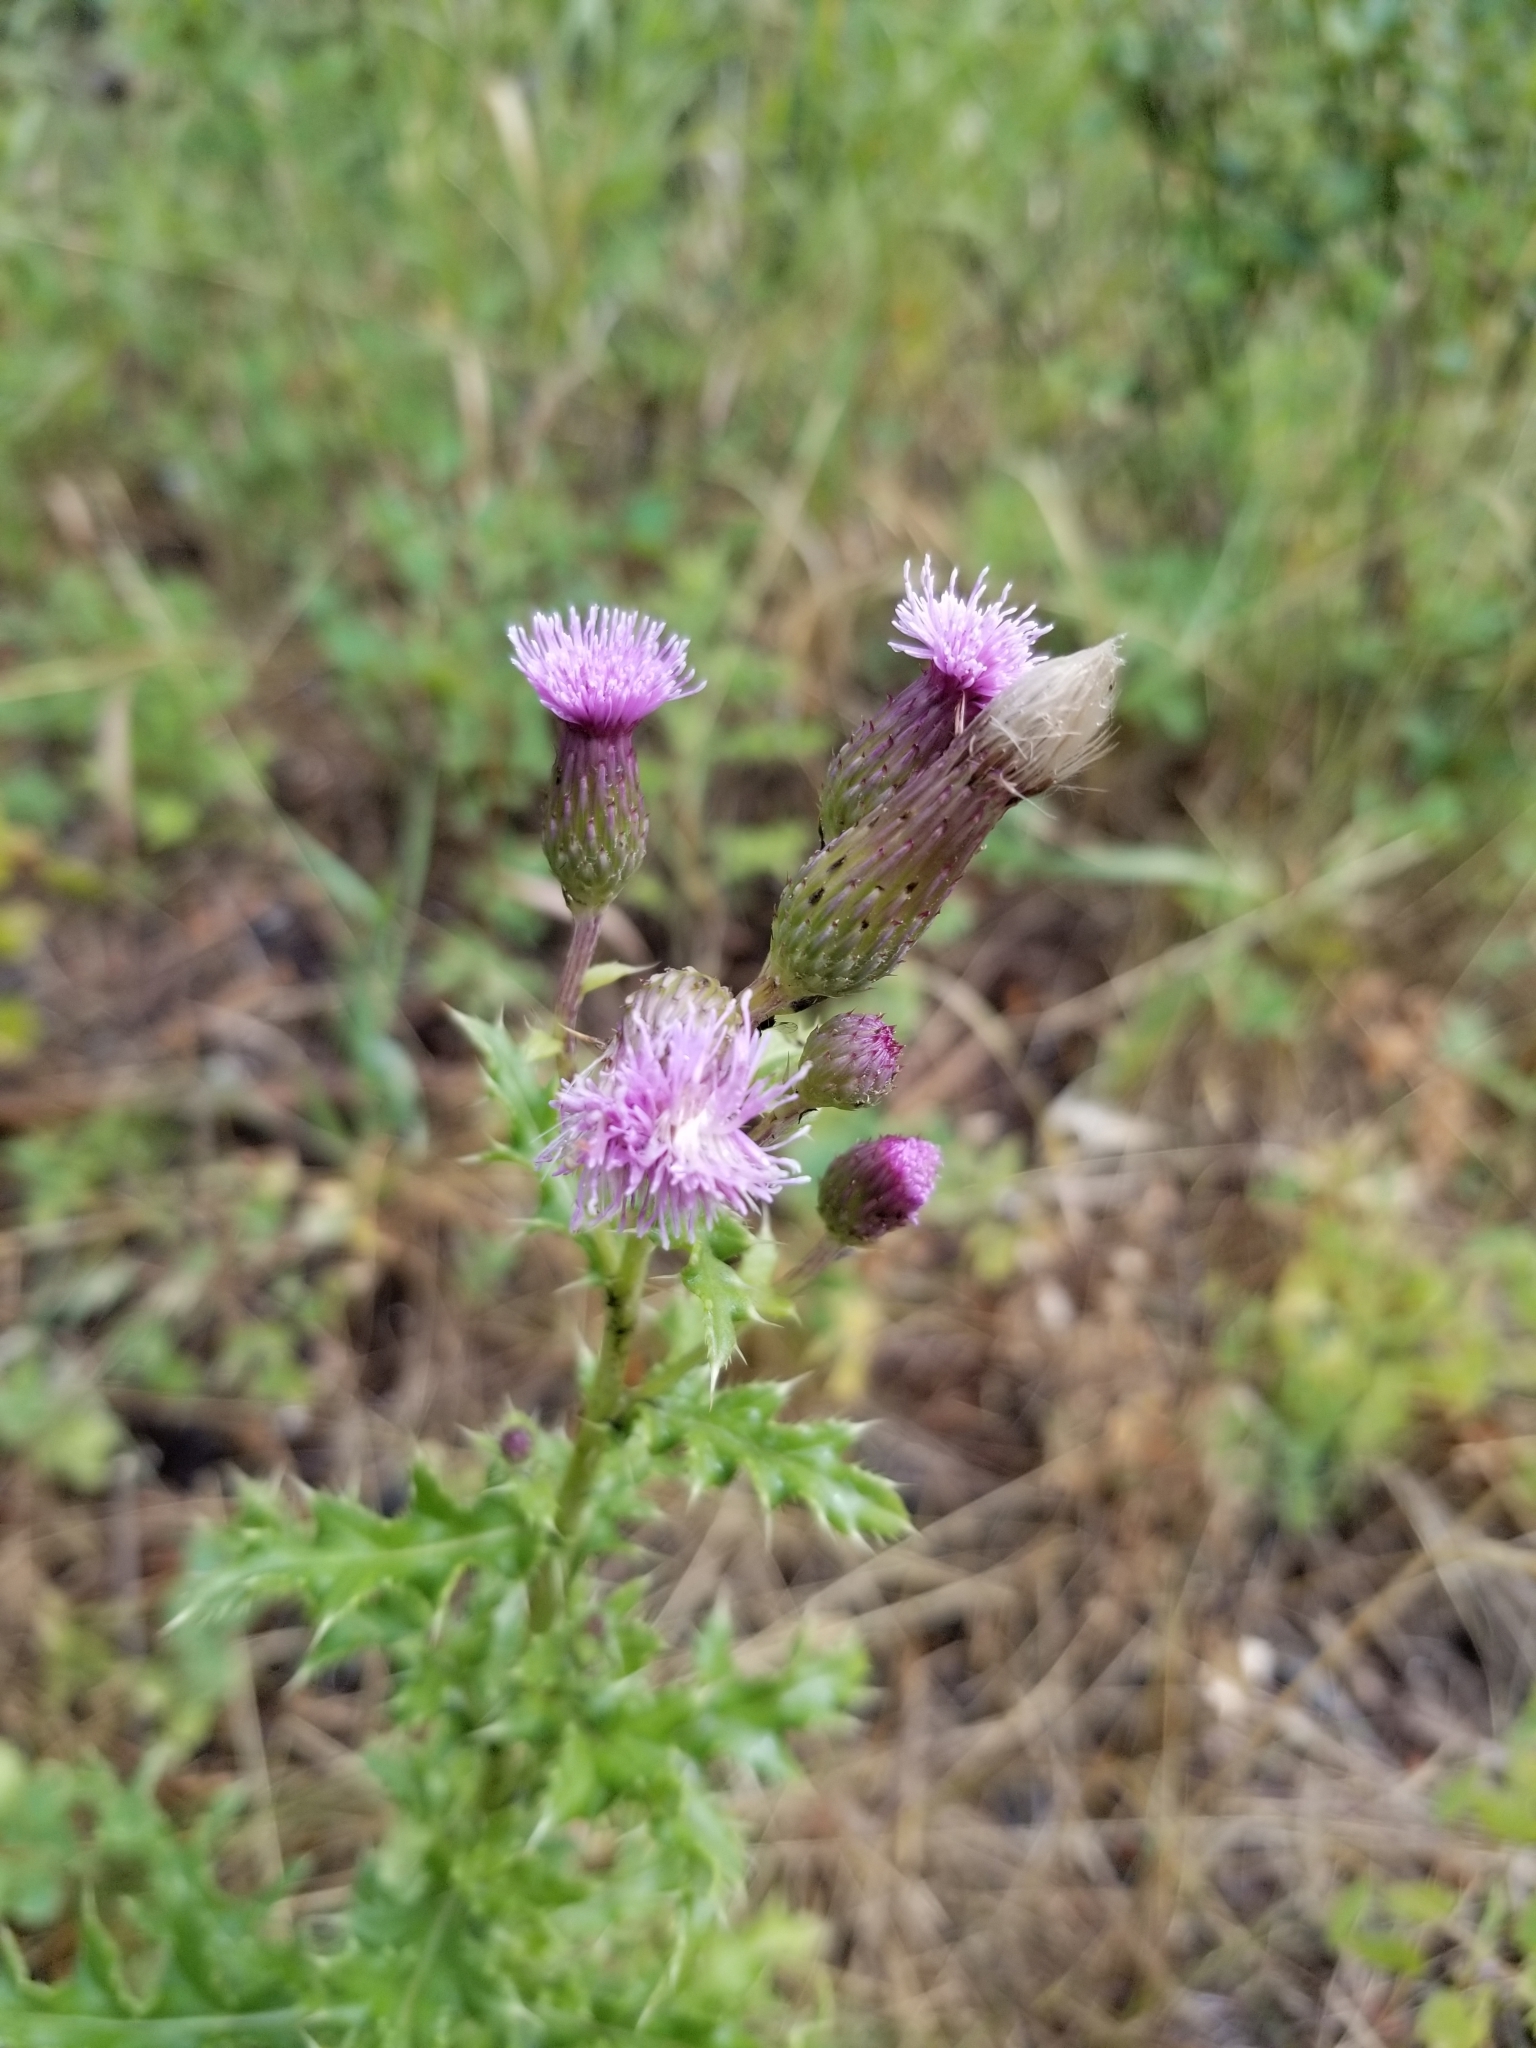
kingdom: Plantae
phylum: Tracheophyta
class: Magnoliopsida
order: Asterales
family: Asteraceae
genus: Cirsium
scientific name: Cirsium arvense
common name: Creeping thistle
